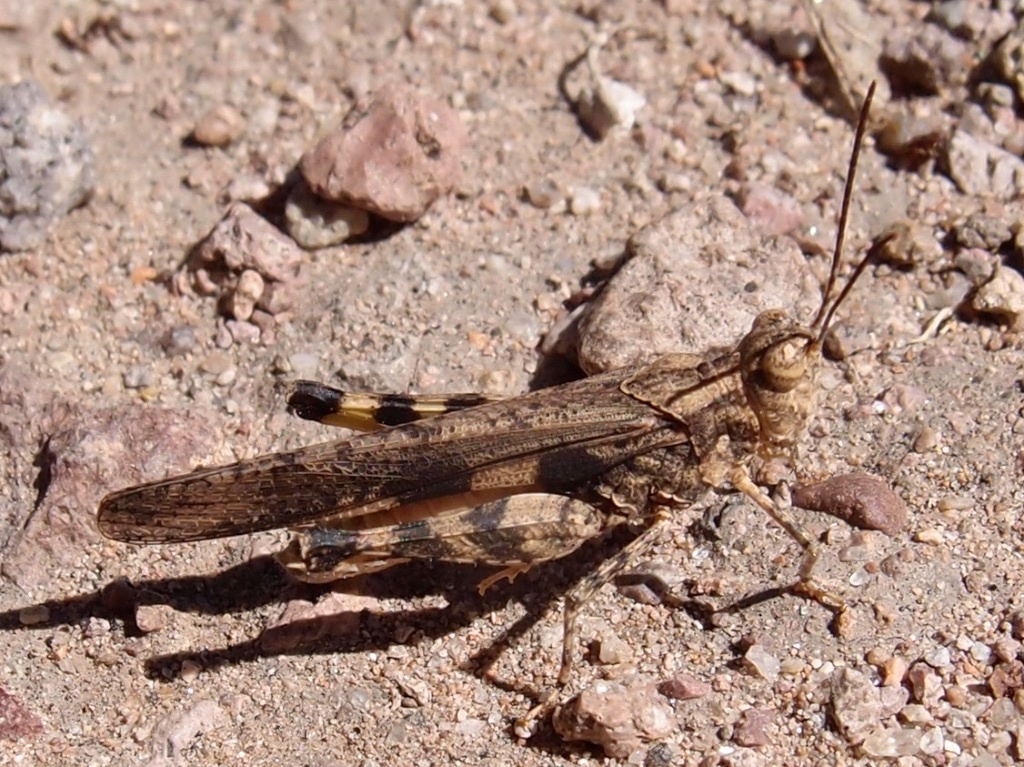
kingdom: Animalia
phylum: Arthropoda
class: Insecta
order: Orthoptera
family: Acrididae
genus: Conozoa
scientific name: Conozoa carinata
